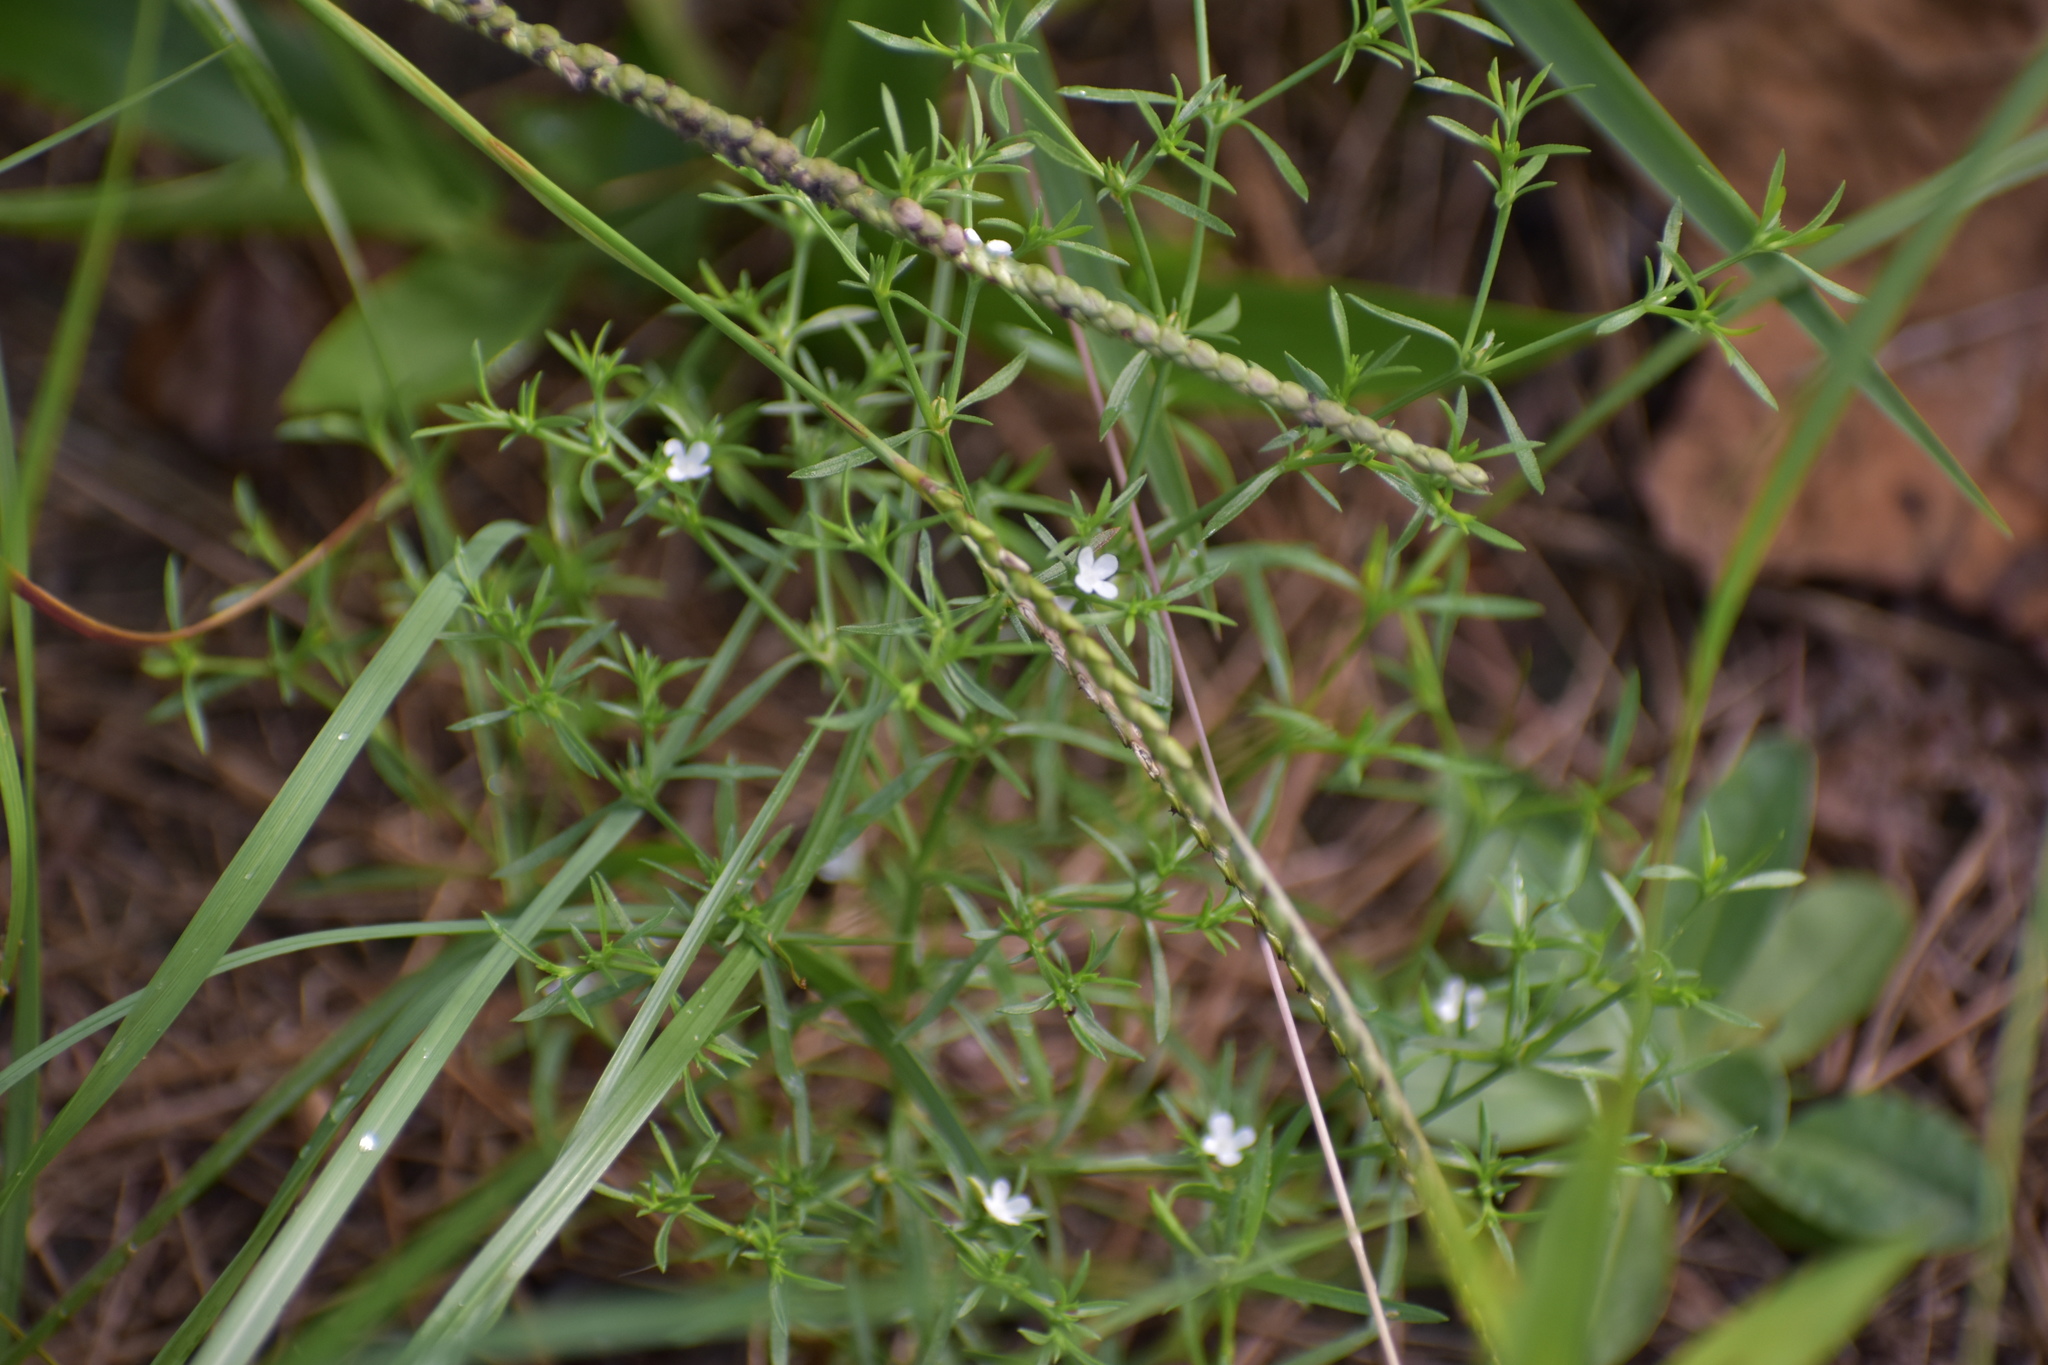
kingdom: Plantae
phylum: Tracheophyta
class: Magnoliopsida
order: Lamiales
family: Tetrachondraceae
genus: Polypremum
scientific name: Polypremum procumbens
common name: Juniper-leaf
